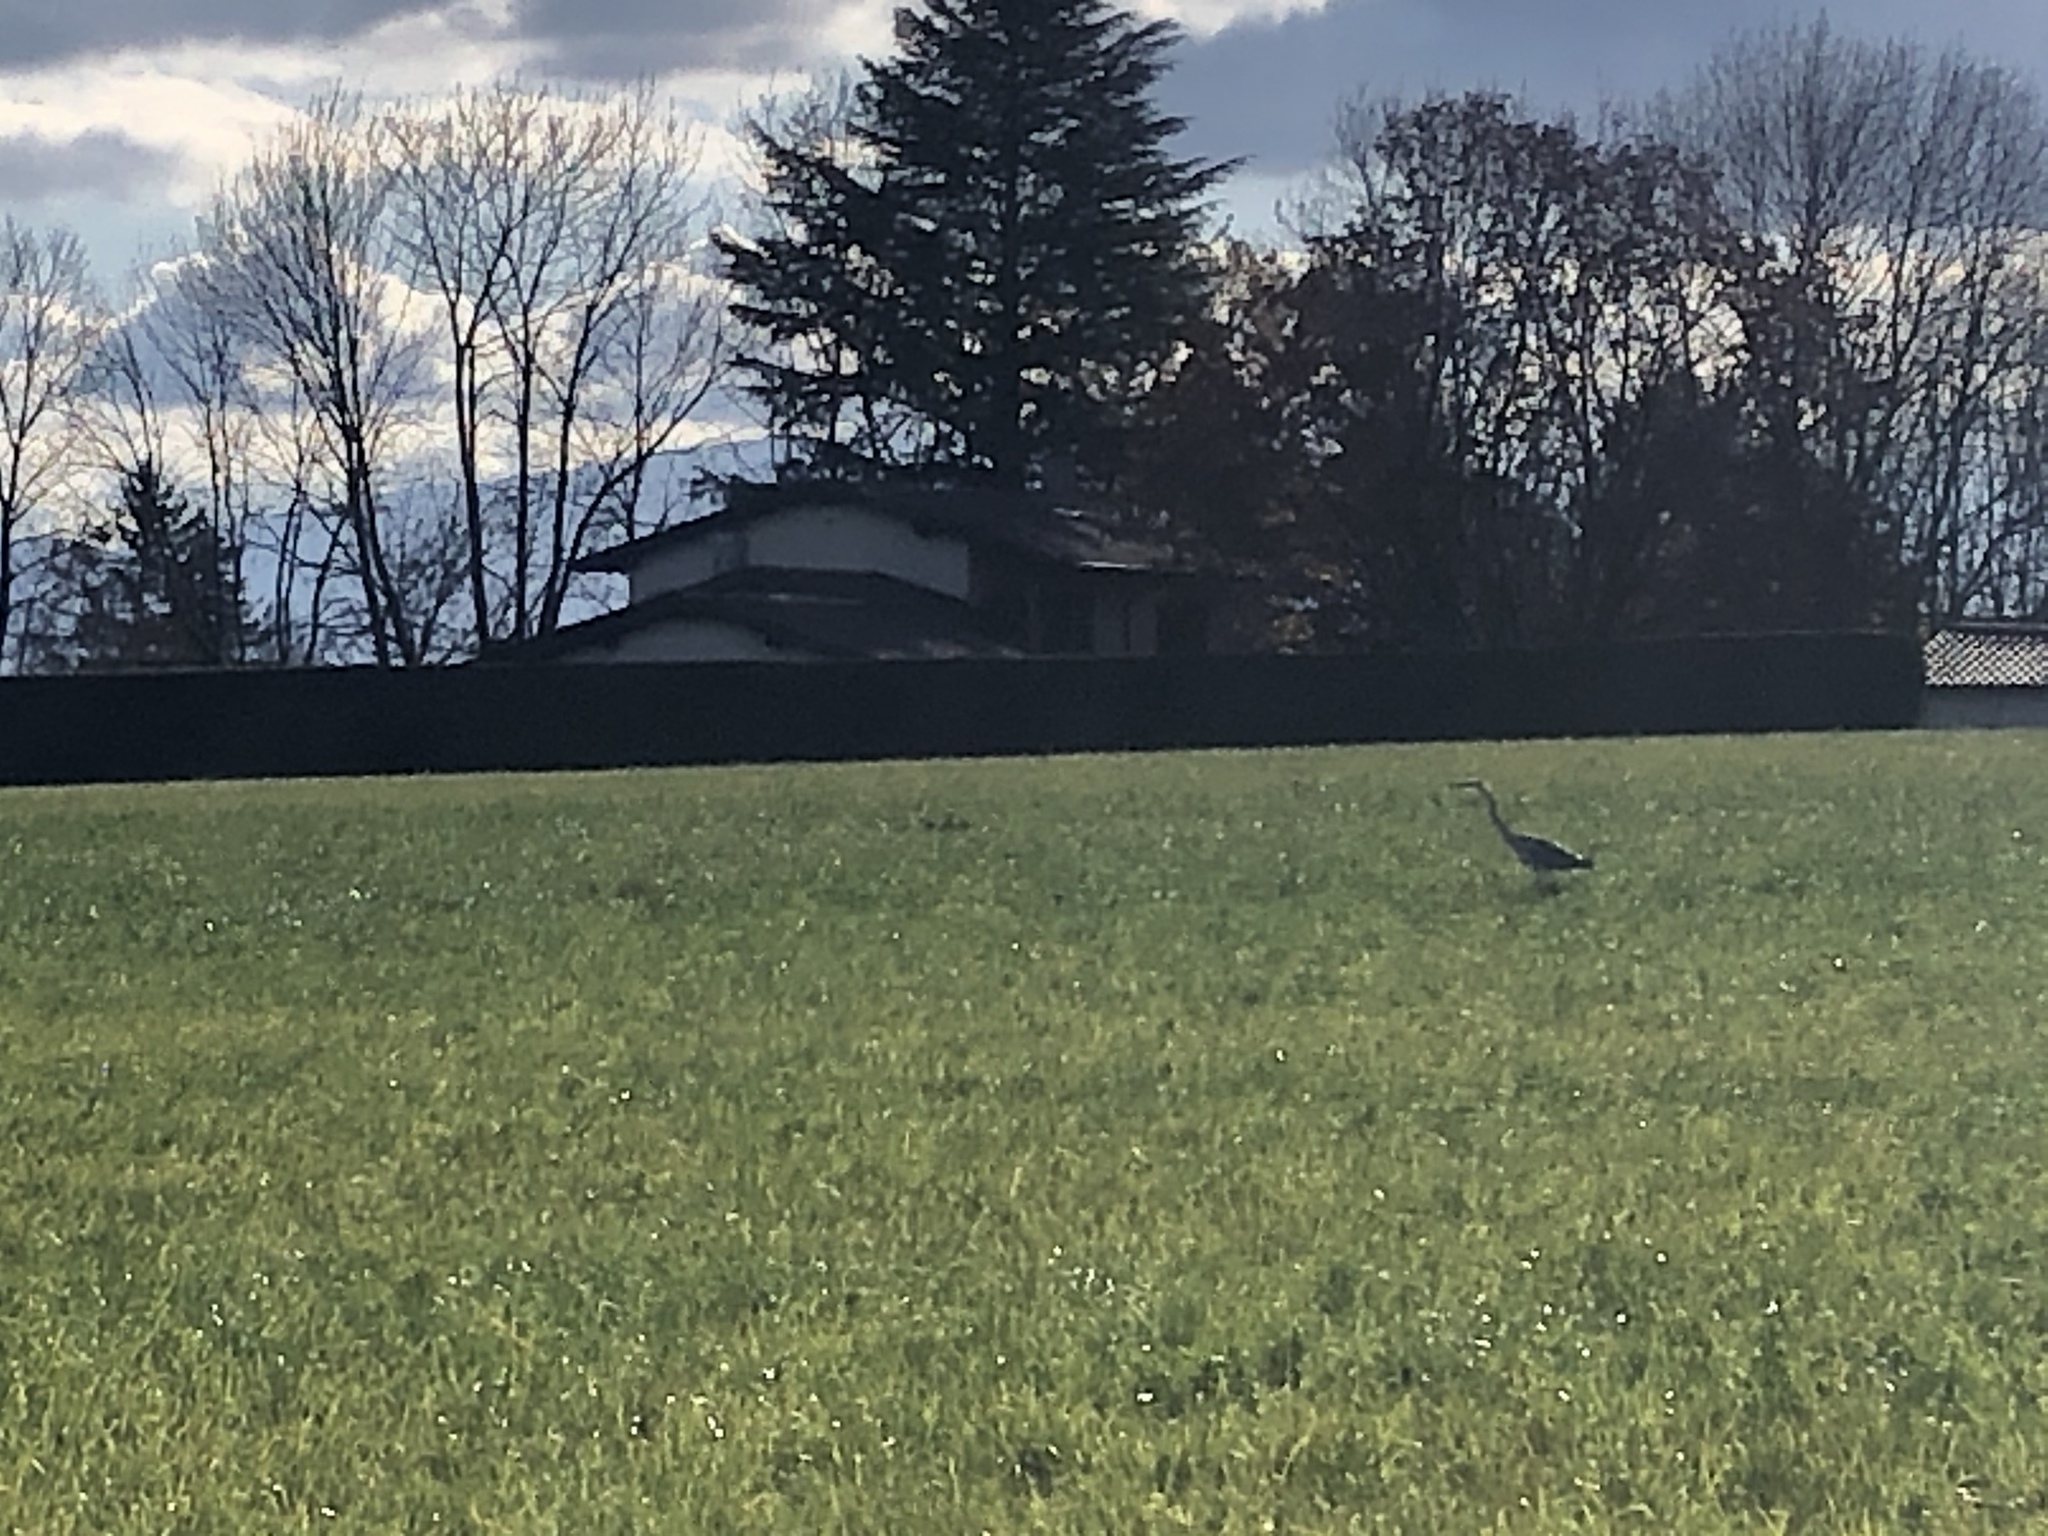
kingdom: Animalia
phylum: Chordata
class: Aves
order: Pelecaniformes
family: Ardeidae
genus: Ardea
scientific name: Ardea cinerea
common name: Grey heron
